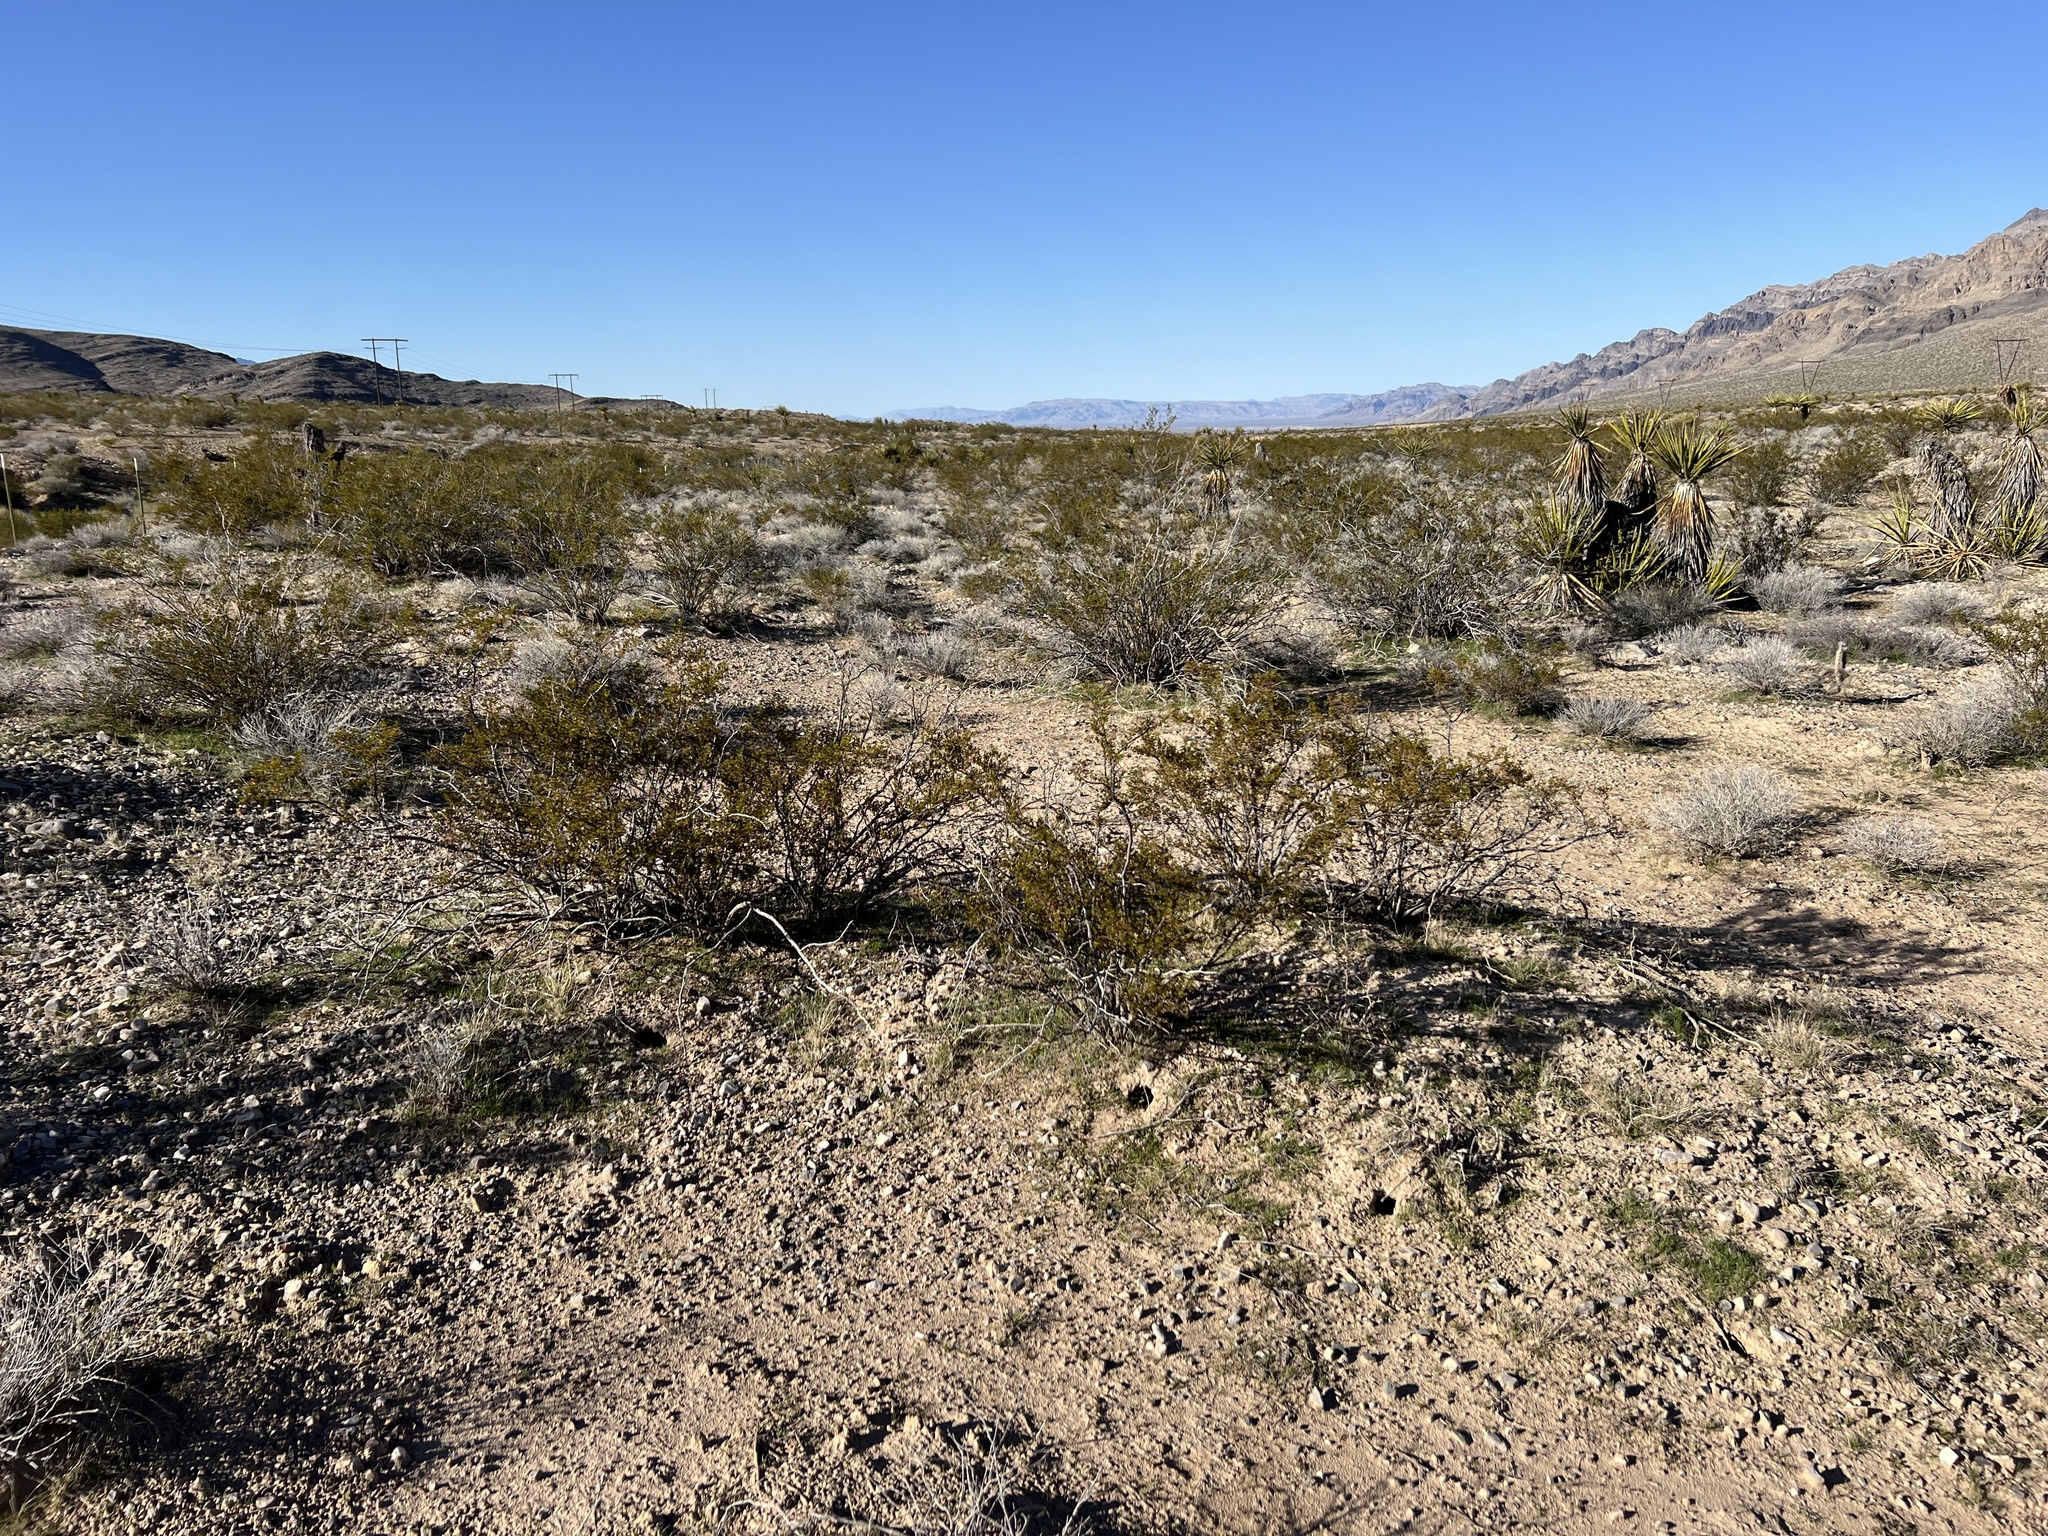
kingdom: Plantae
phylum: Tracheophyta
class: Magnoliopsida
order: Zygophyllales
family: Zygophyllaceae
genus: Larrea
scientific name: Larrea tridentata
